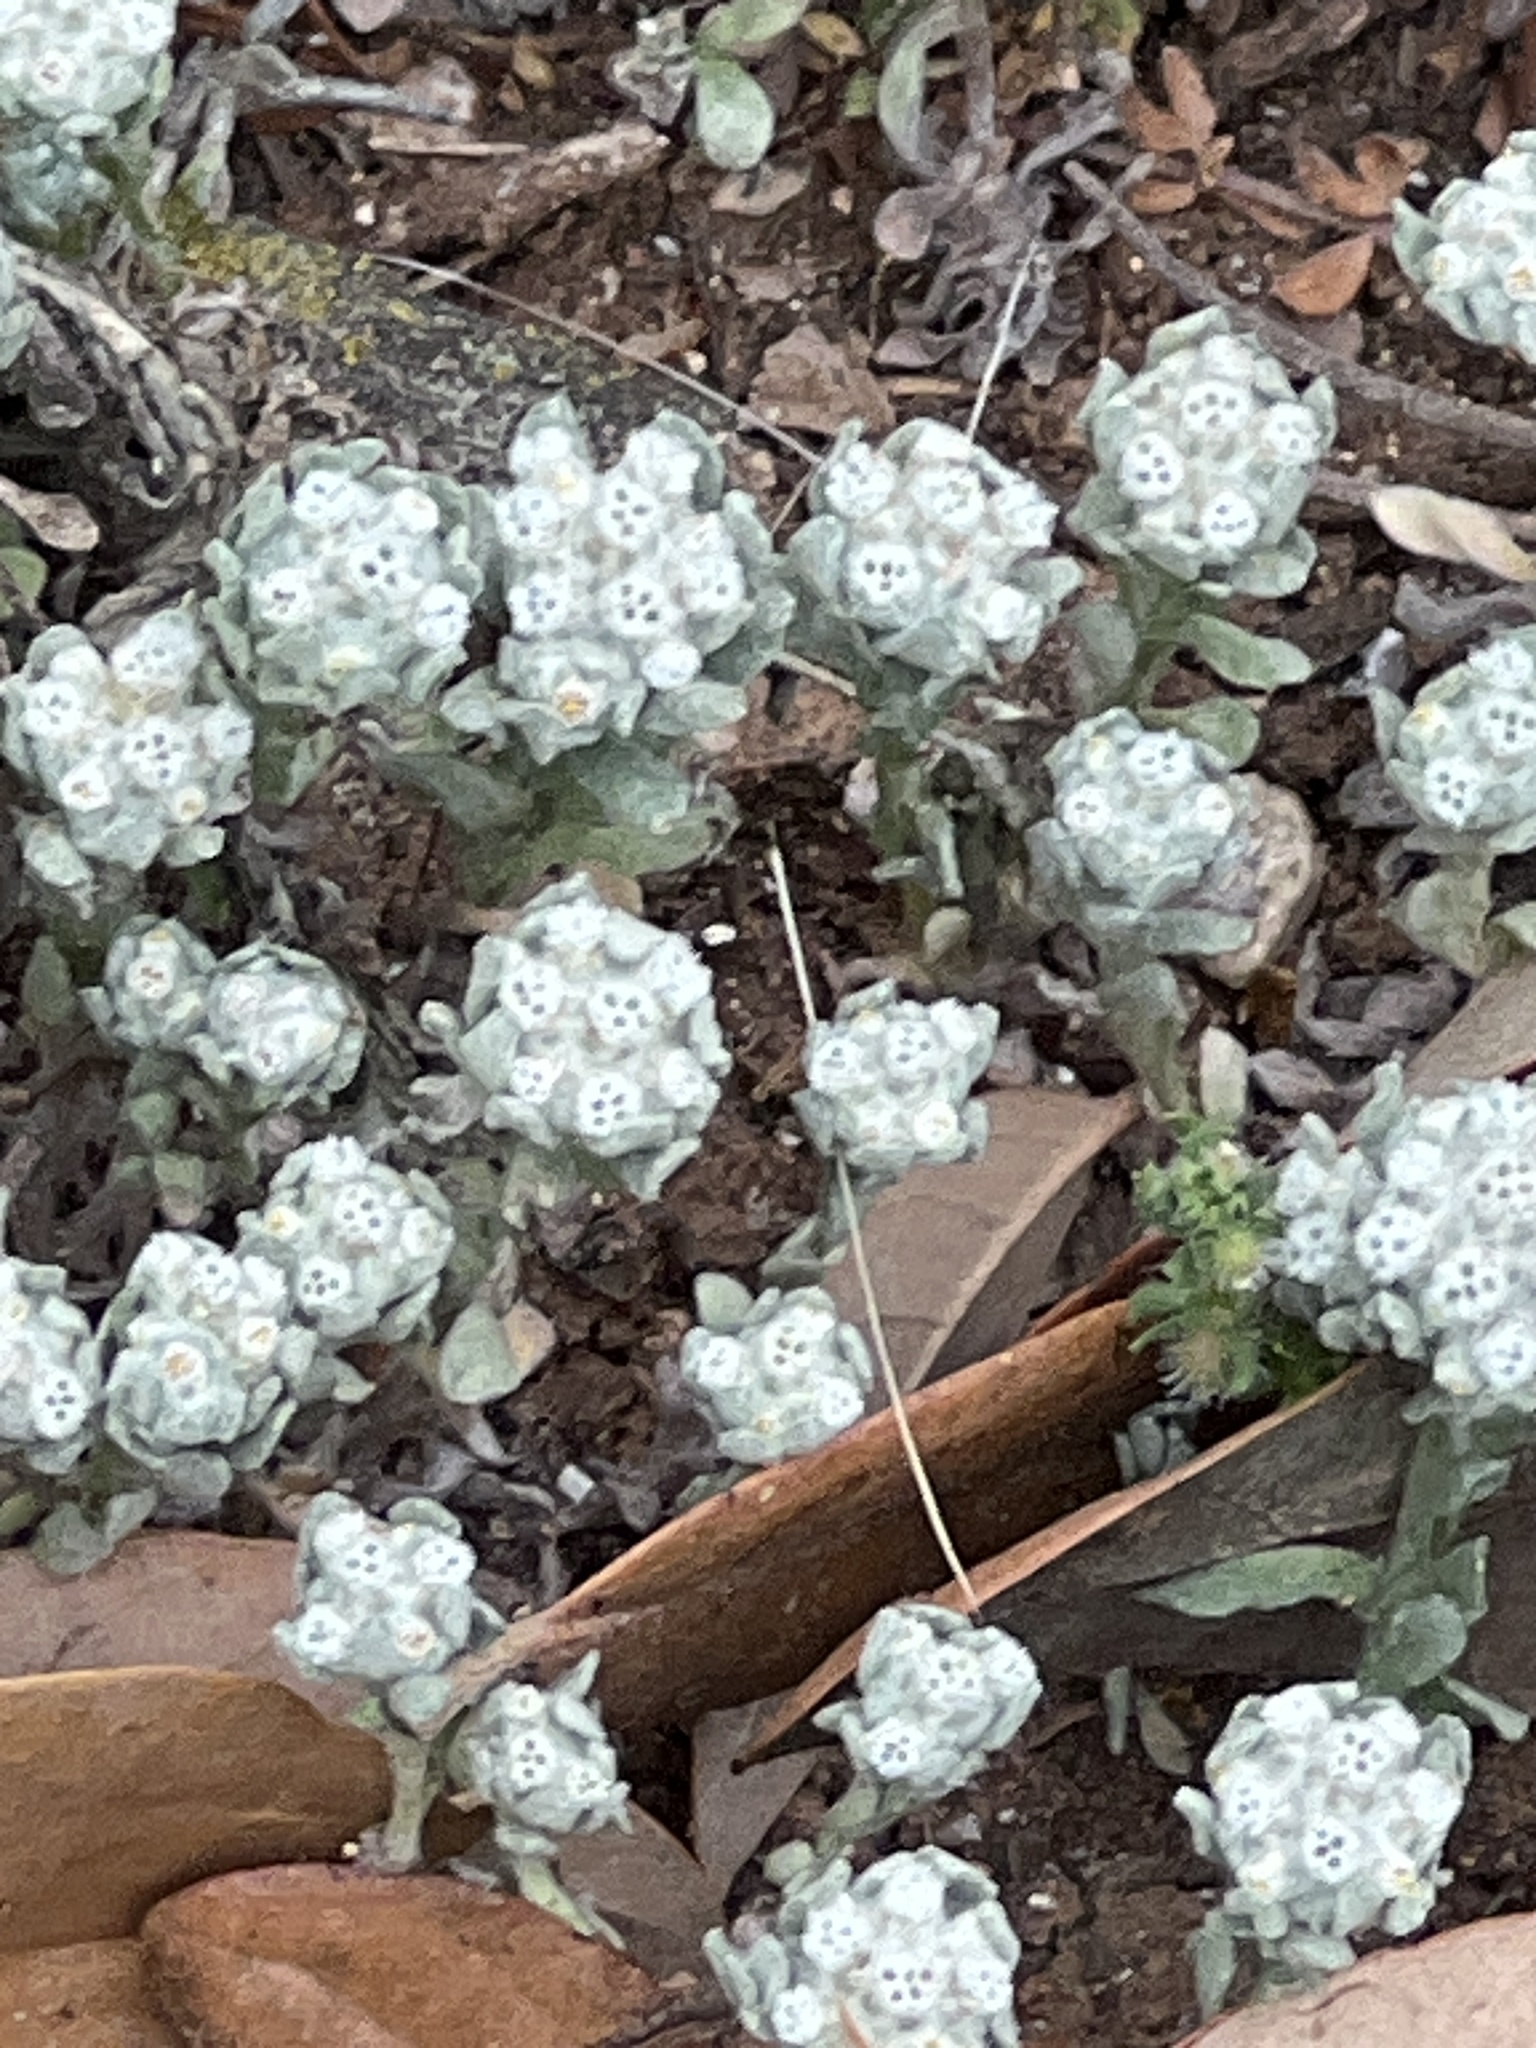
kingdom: Plantae
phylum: Tracheophyta
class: Magnoliopsida
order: Asterales
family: Asteraceae
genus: Diaperia
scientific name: Diaperia verna
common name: Many-stem rabbit-tobacco
